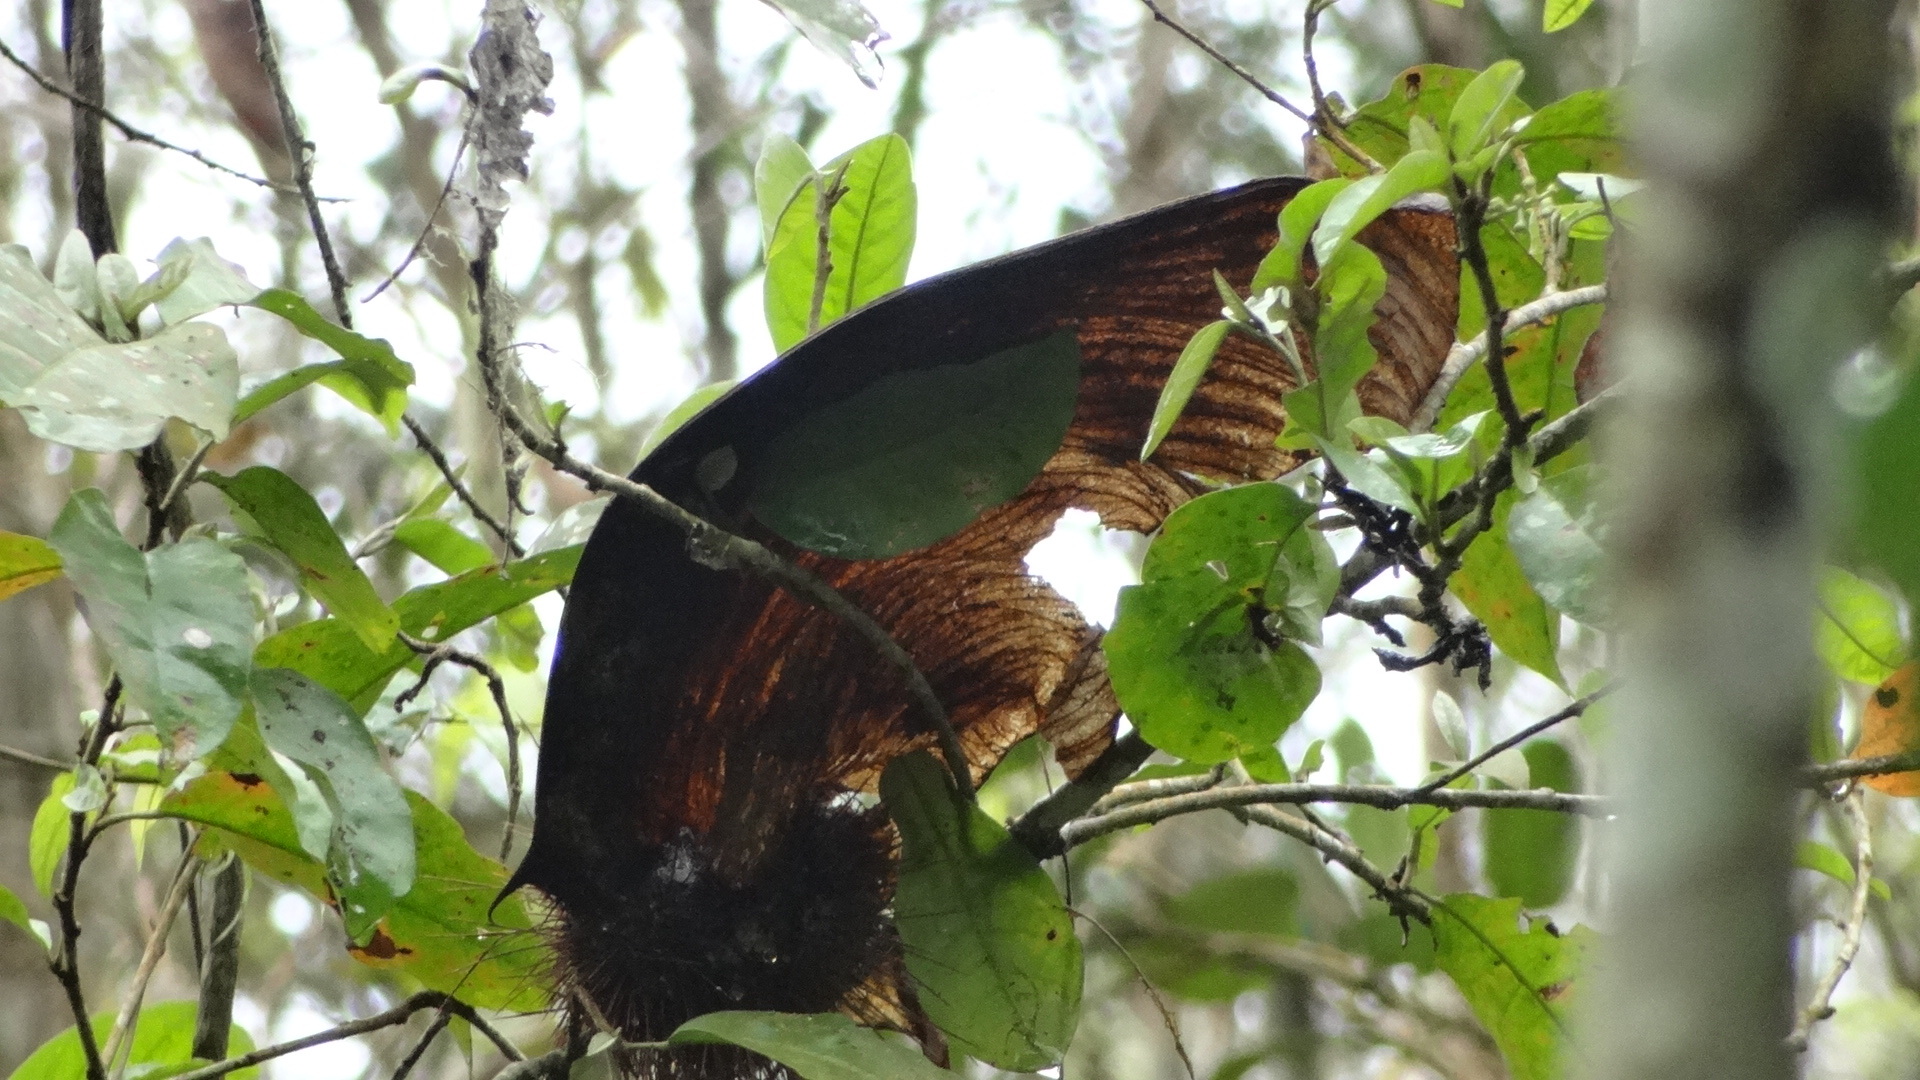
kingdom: Plantae
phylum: Tracheophyta
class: Magnoliopsida
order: Fabales
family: Fabaceae
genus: Centrolobium
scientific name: Centrolobium ochroxylum
